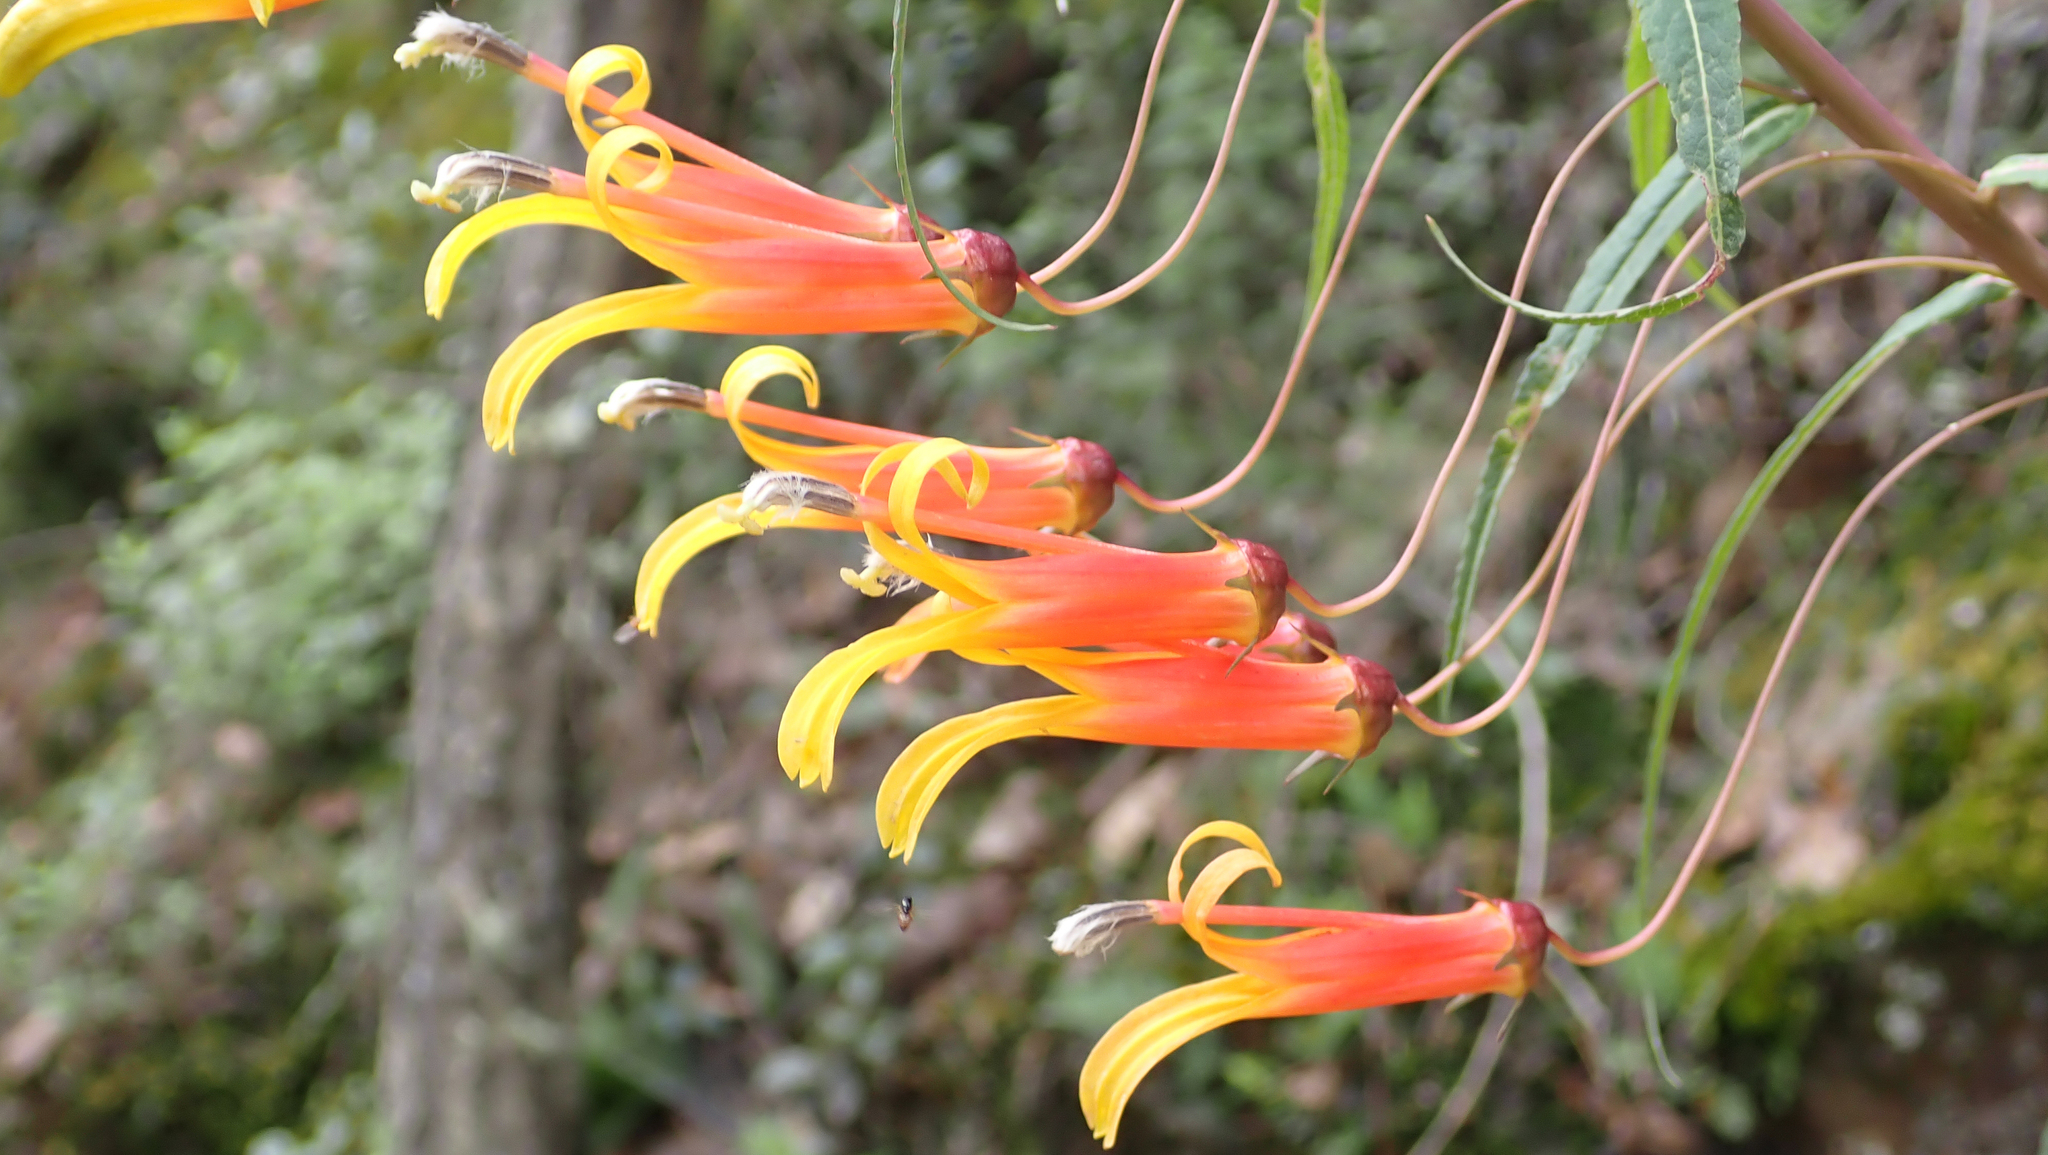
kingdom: Plantae
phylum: Tracheophyta
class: Magnoliopsida
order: Asterales
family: Campanulaceae
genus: Lobelia
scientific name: Lobelia laxiflora
